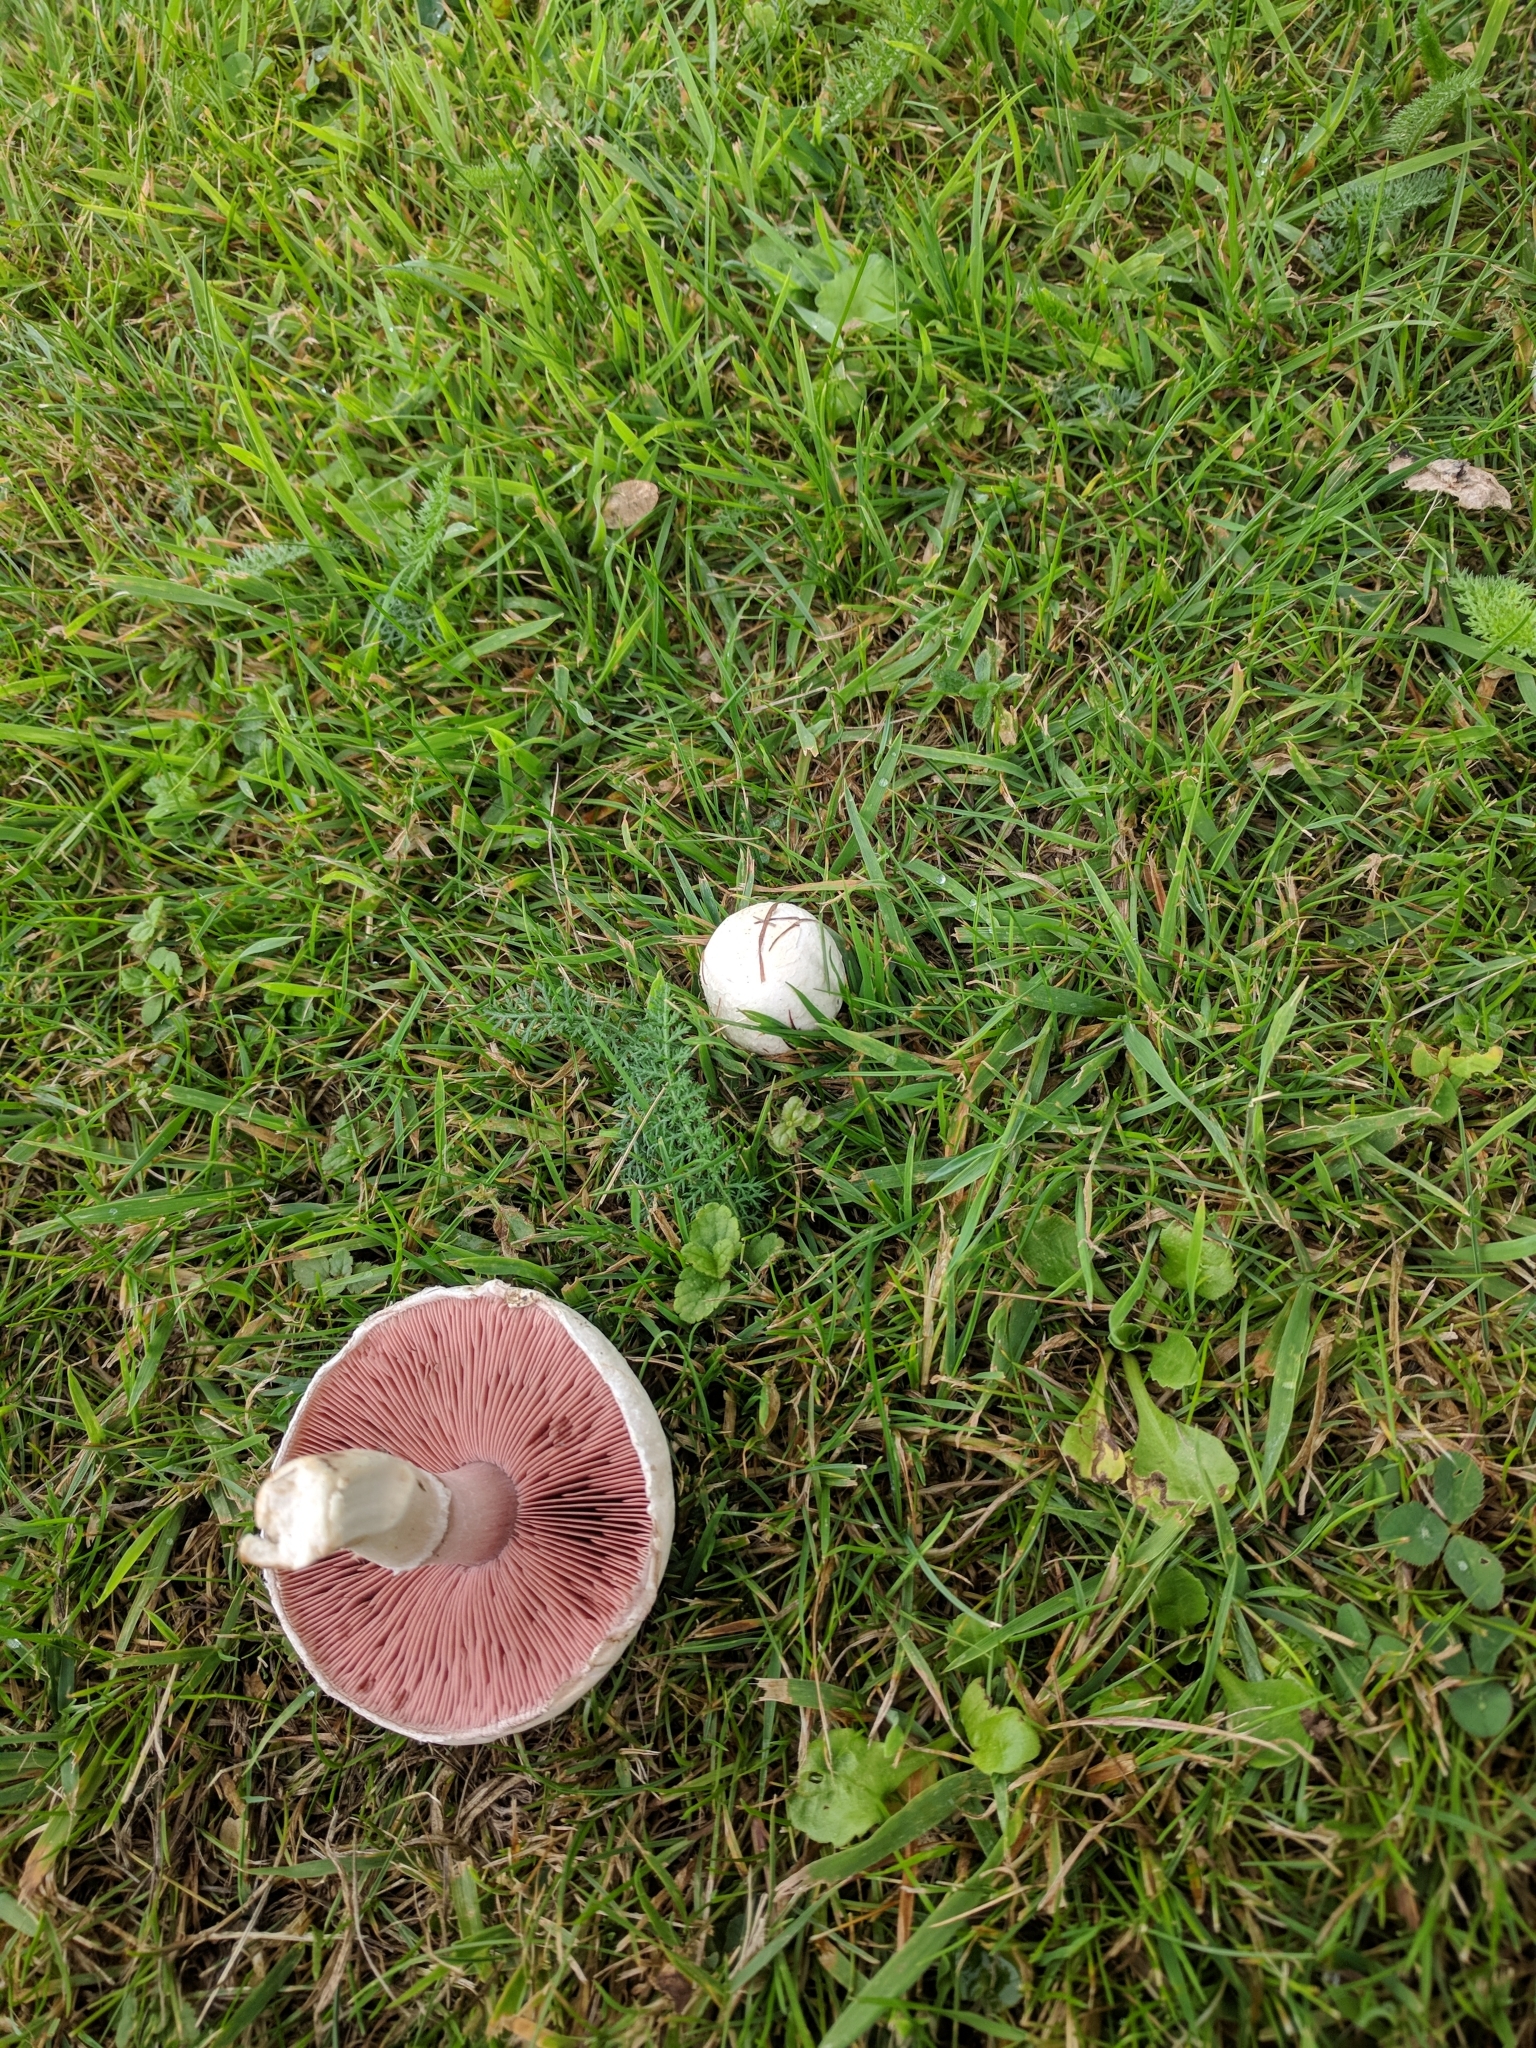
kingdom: Fungi
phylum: Basidiomycota
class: Agaricomycetes
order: Agaricales
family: Agaricaceae
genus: Agaricus
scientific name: Agaricus campestris
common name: Field mushroom
